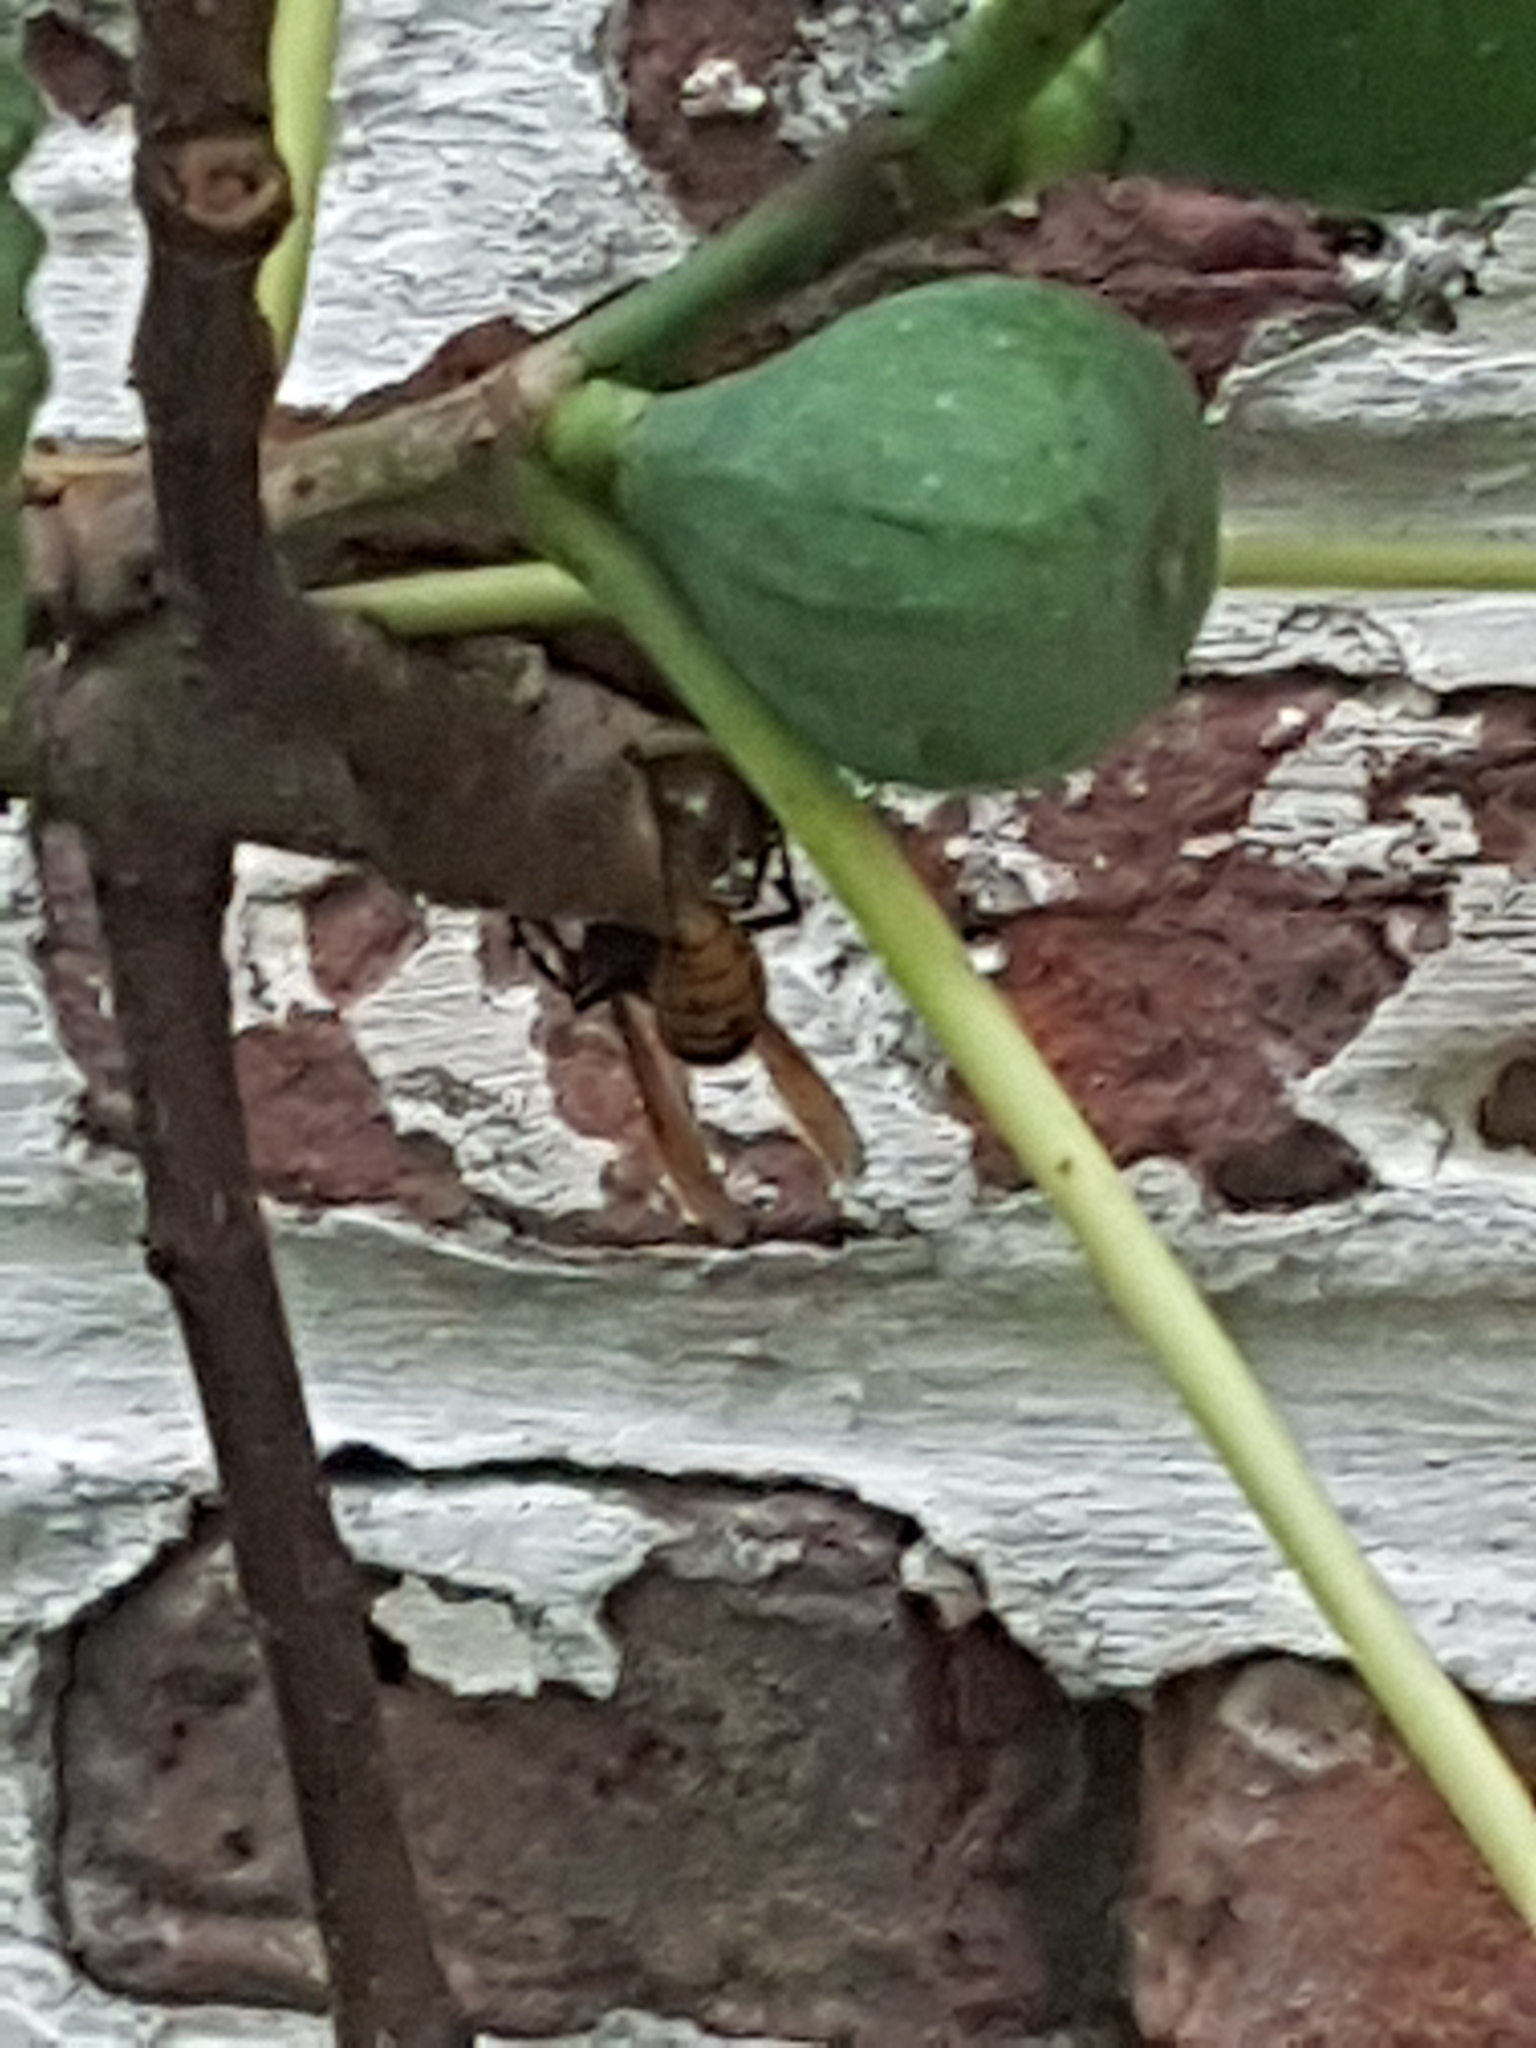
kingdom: Animalia
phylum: Arthropoda
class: Insecta
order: Hymenoptera
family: Vespidae
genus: Vespa
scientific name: Vespa crabro
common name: Hornet
